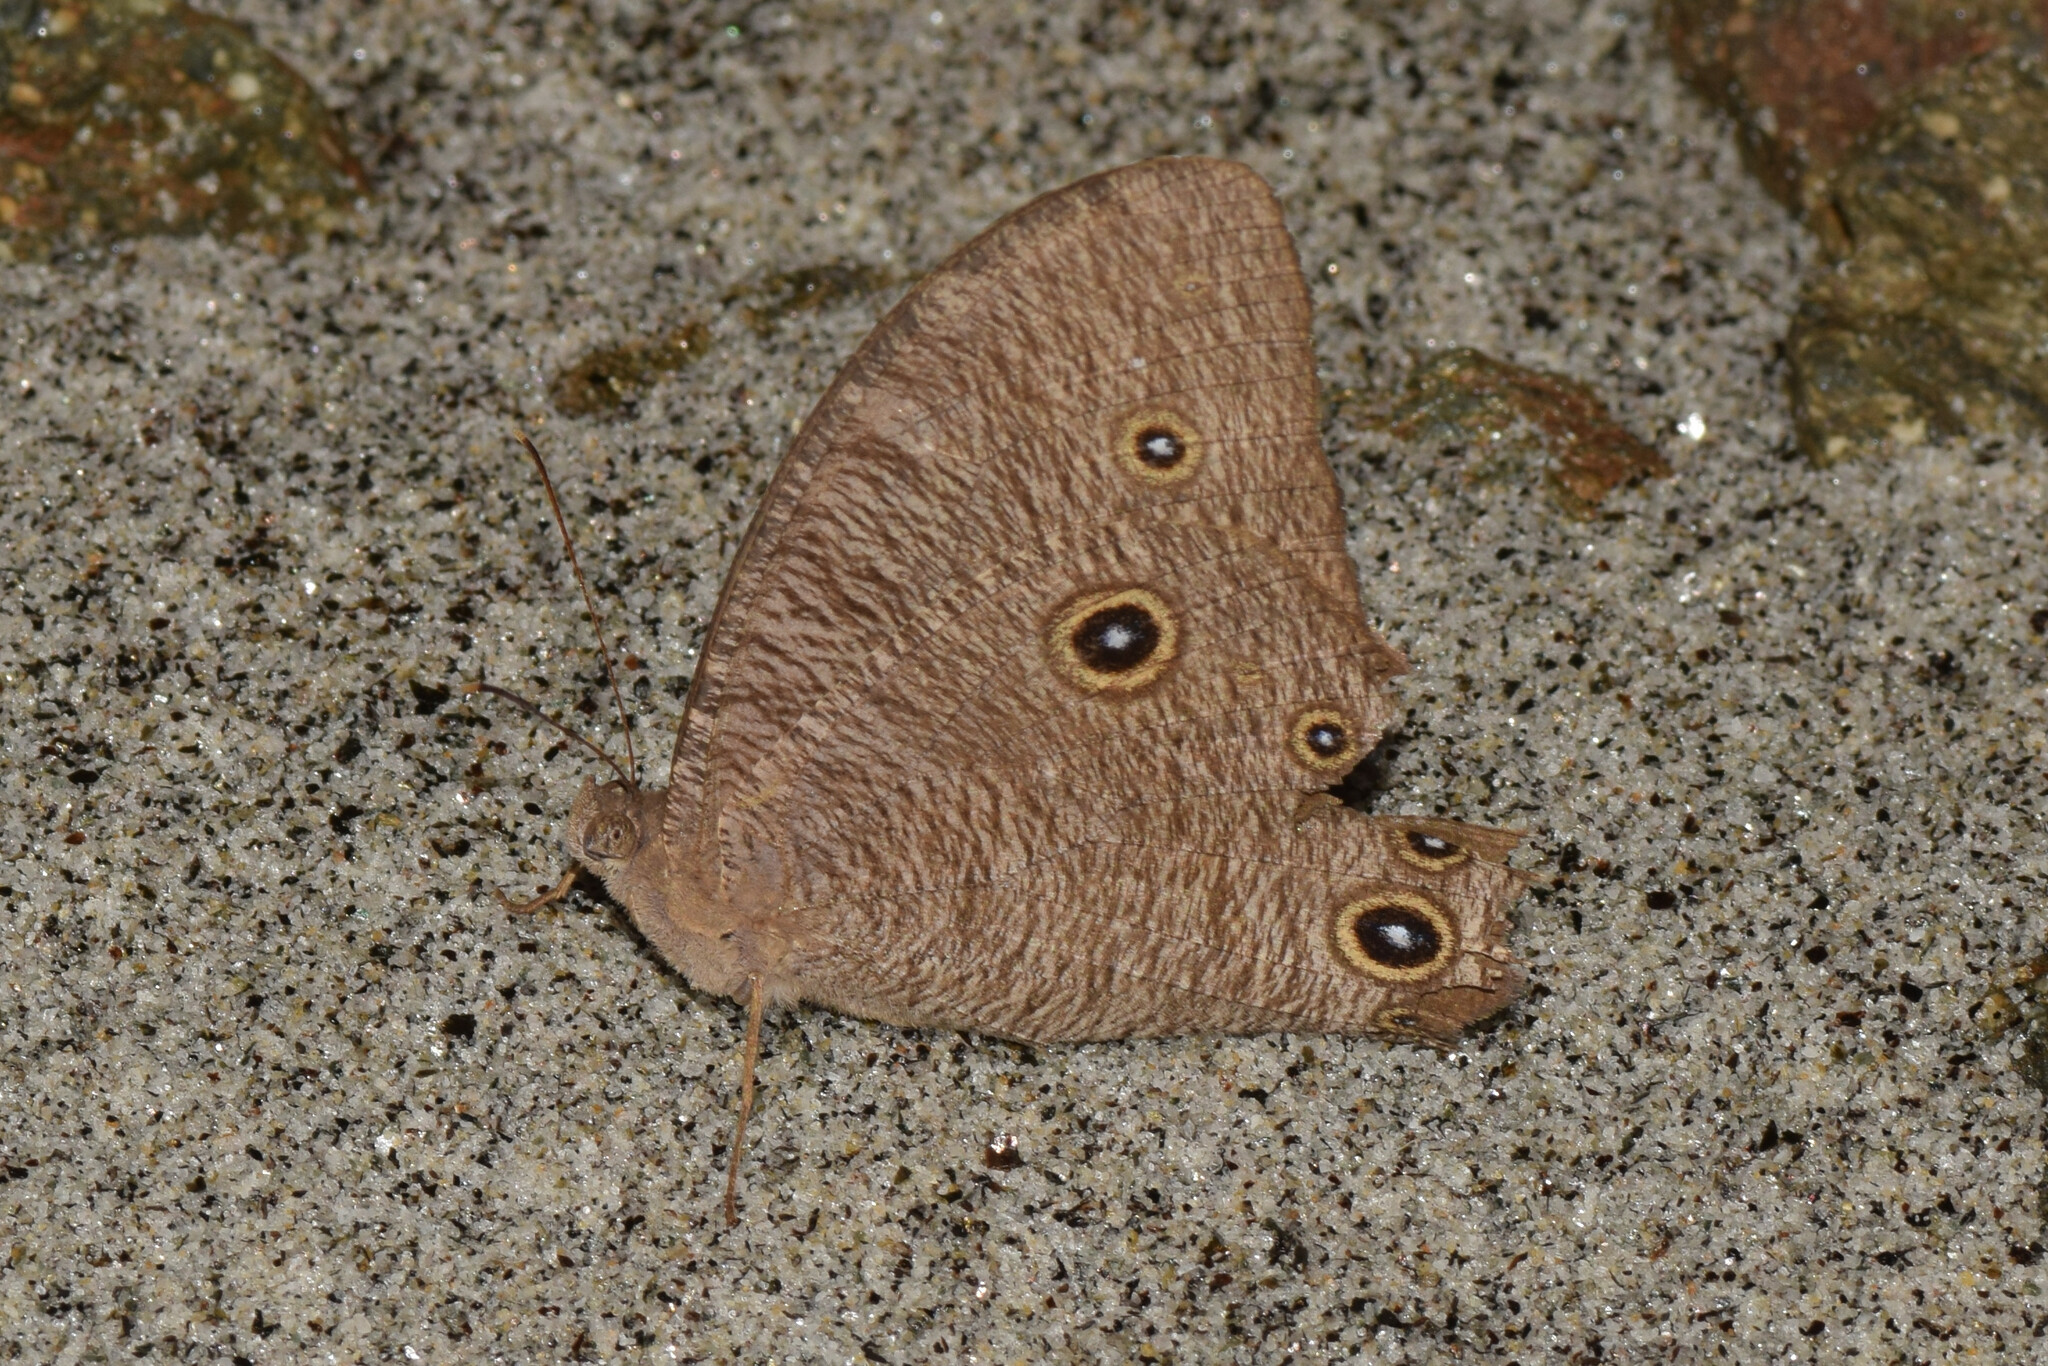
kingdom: Animalia
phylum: Arthropoda
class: Insecta
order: Lepidoptera
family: Nymphalidae
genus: Melanitis
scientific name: Melanitis leda
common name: Twilight brown
